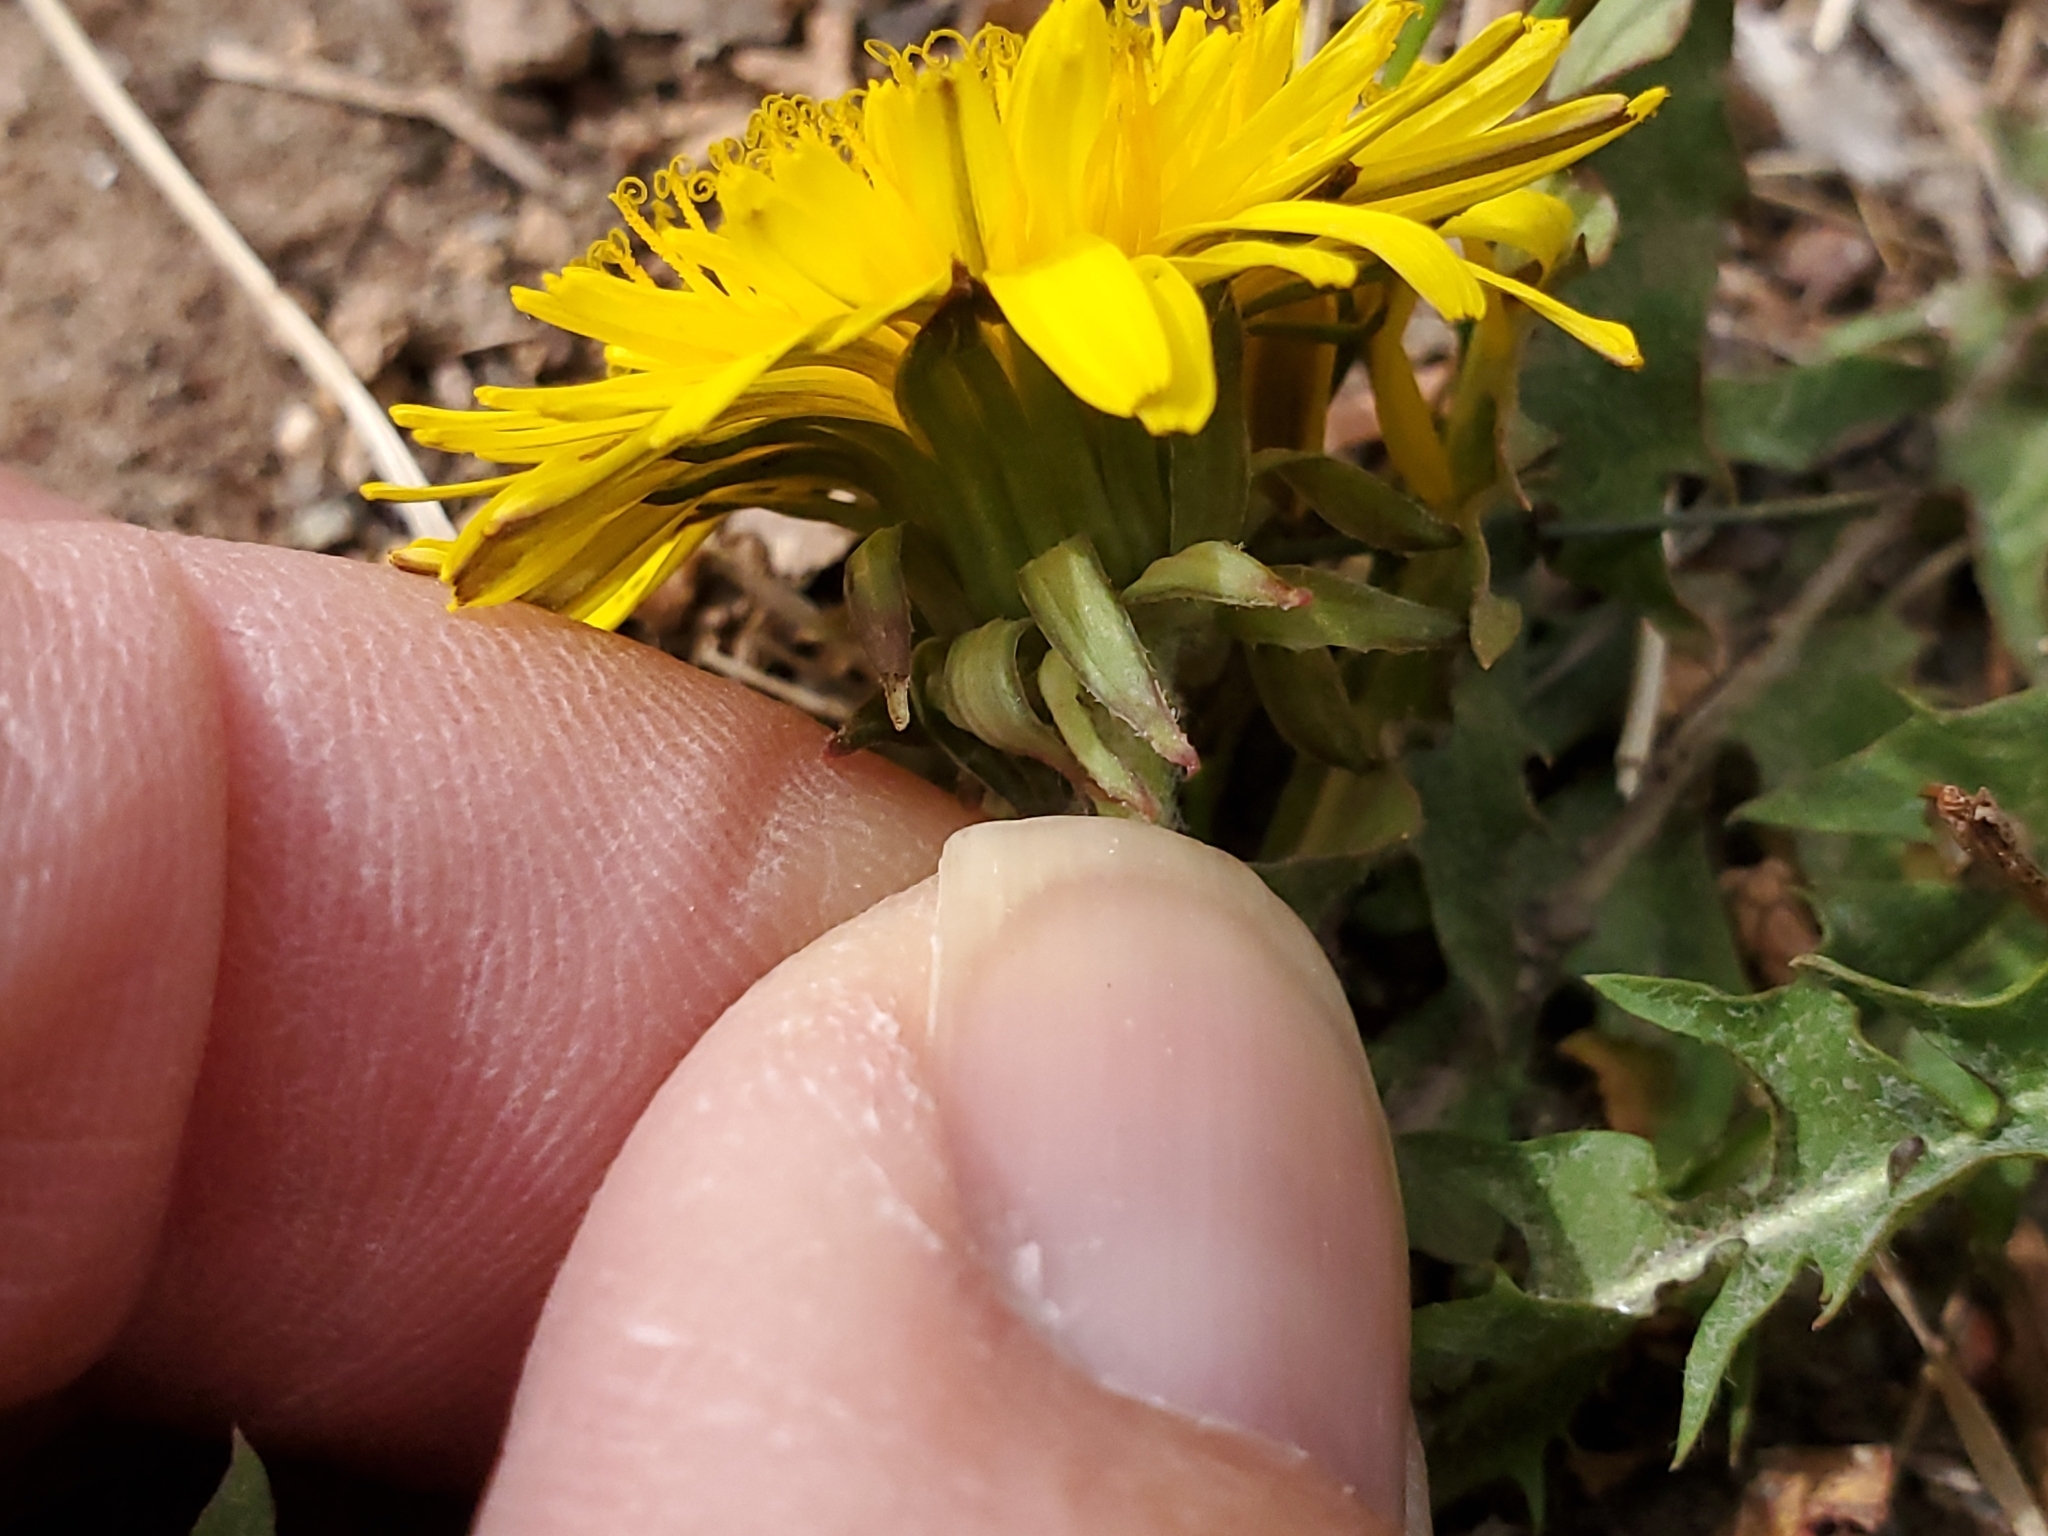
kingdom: Plantae
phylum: Tracheophyta
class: Magnoliopsida
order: Asterales
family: Asteraceae
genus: Taraxacum
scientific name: Taraxacum officinale
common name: Common dandelion
